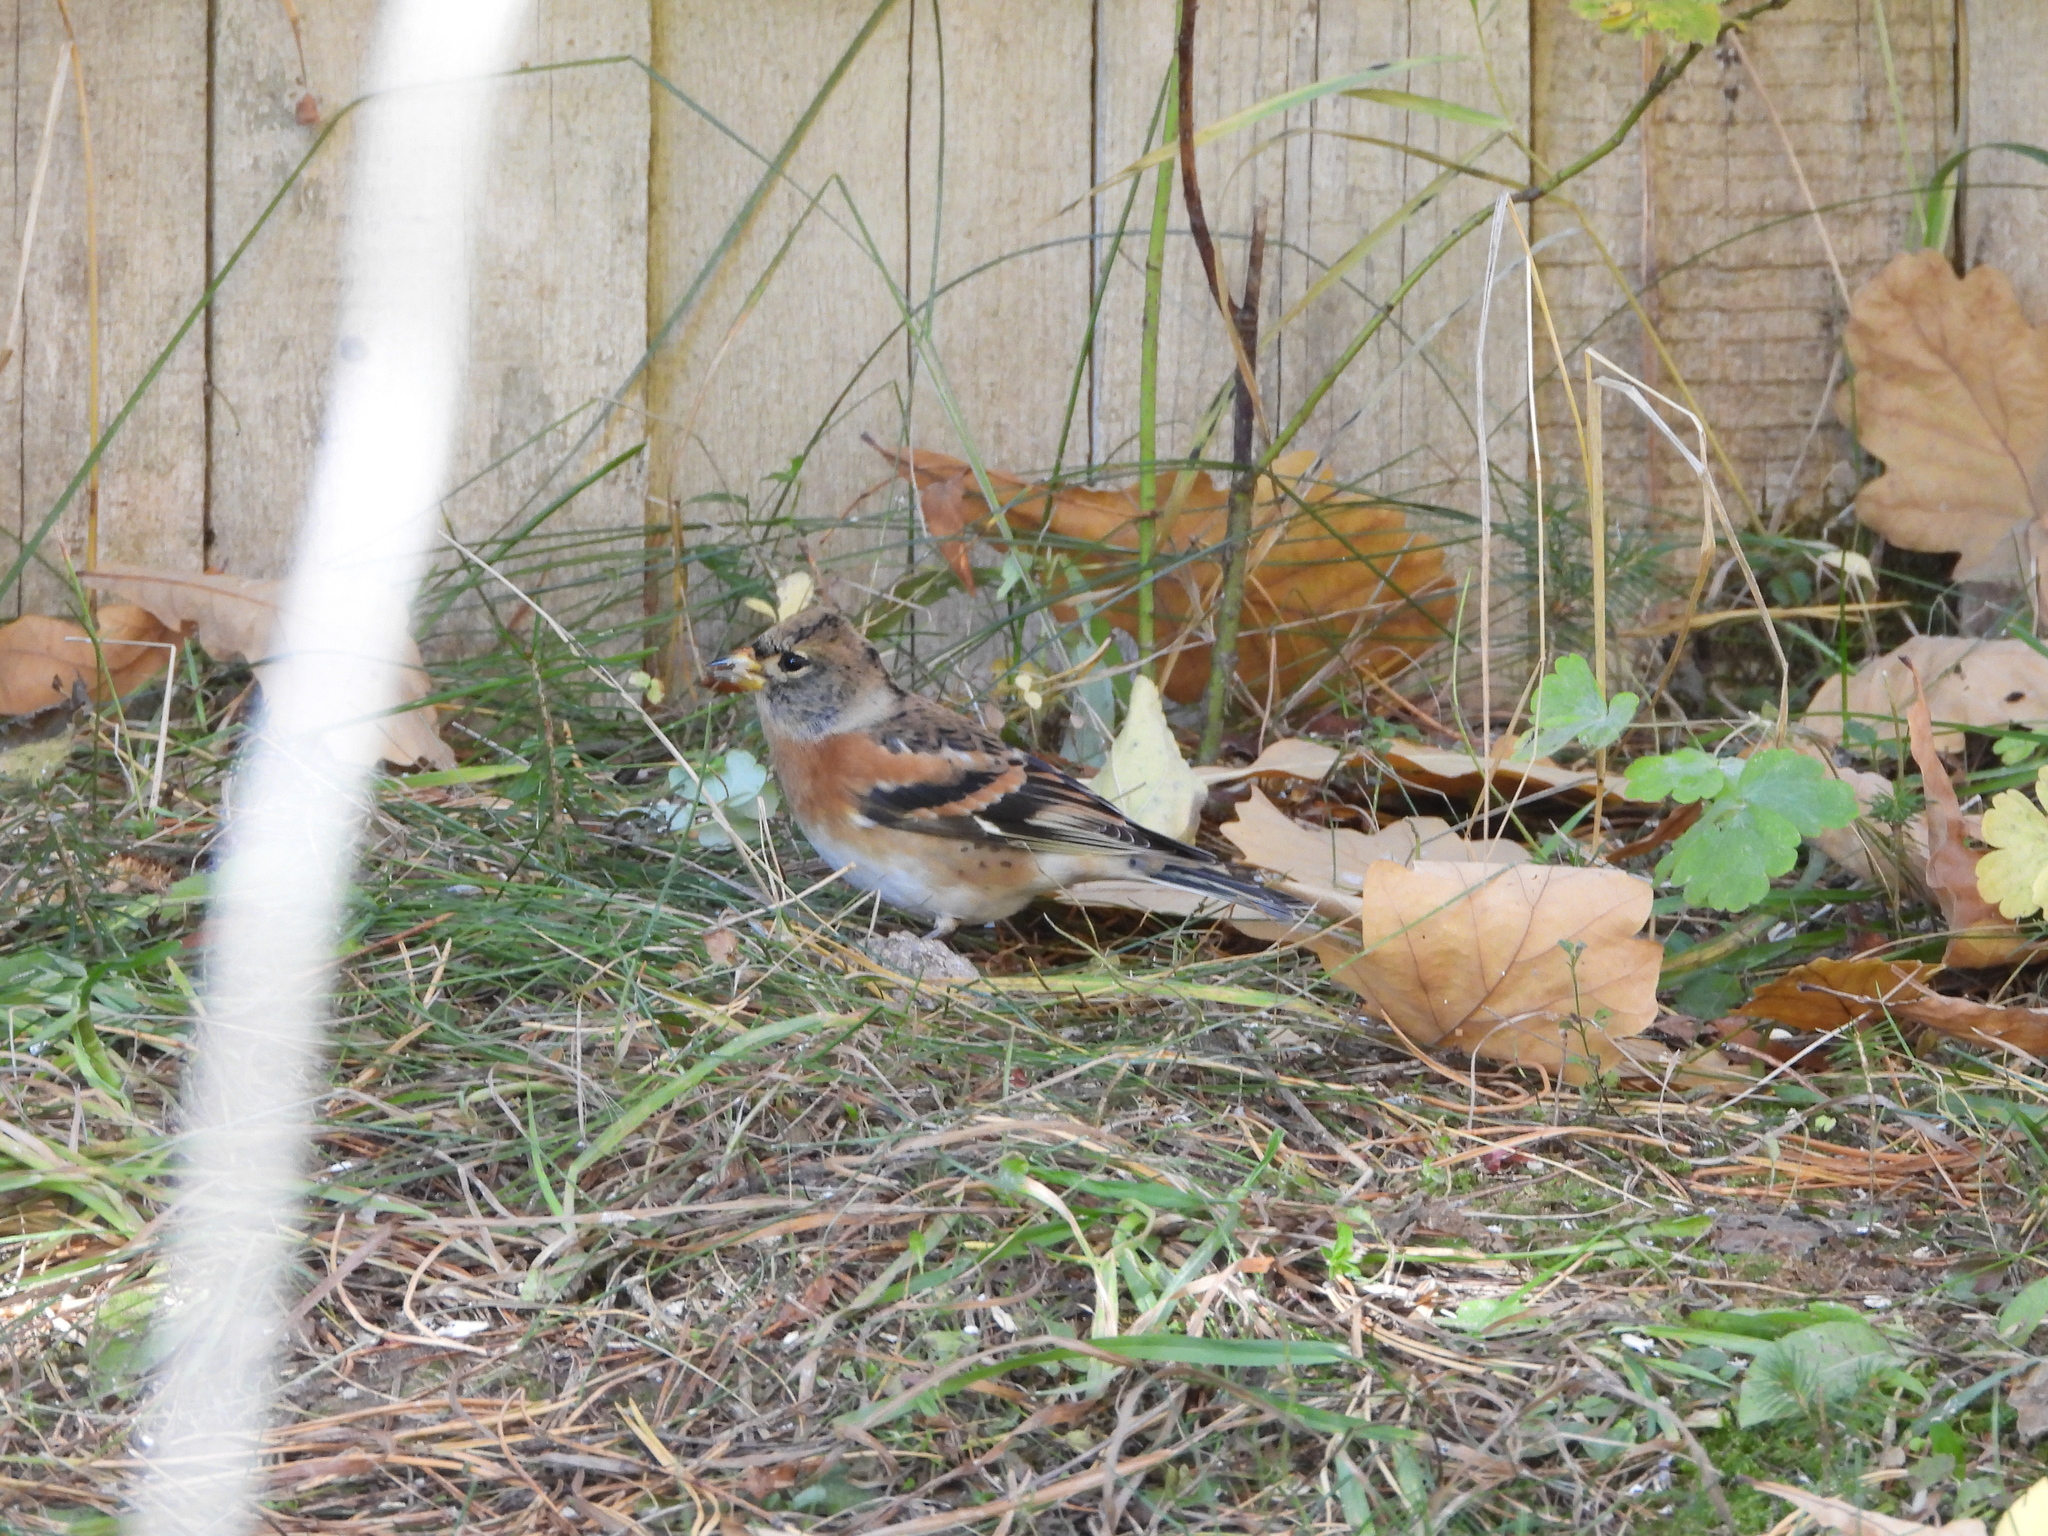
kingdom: Animalia
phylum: Chordata
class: Aves
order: Passeriformes
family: Fringillidae
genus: Fringilla
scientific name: Fringilla montifringilla
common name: Brambling
